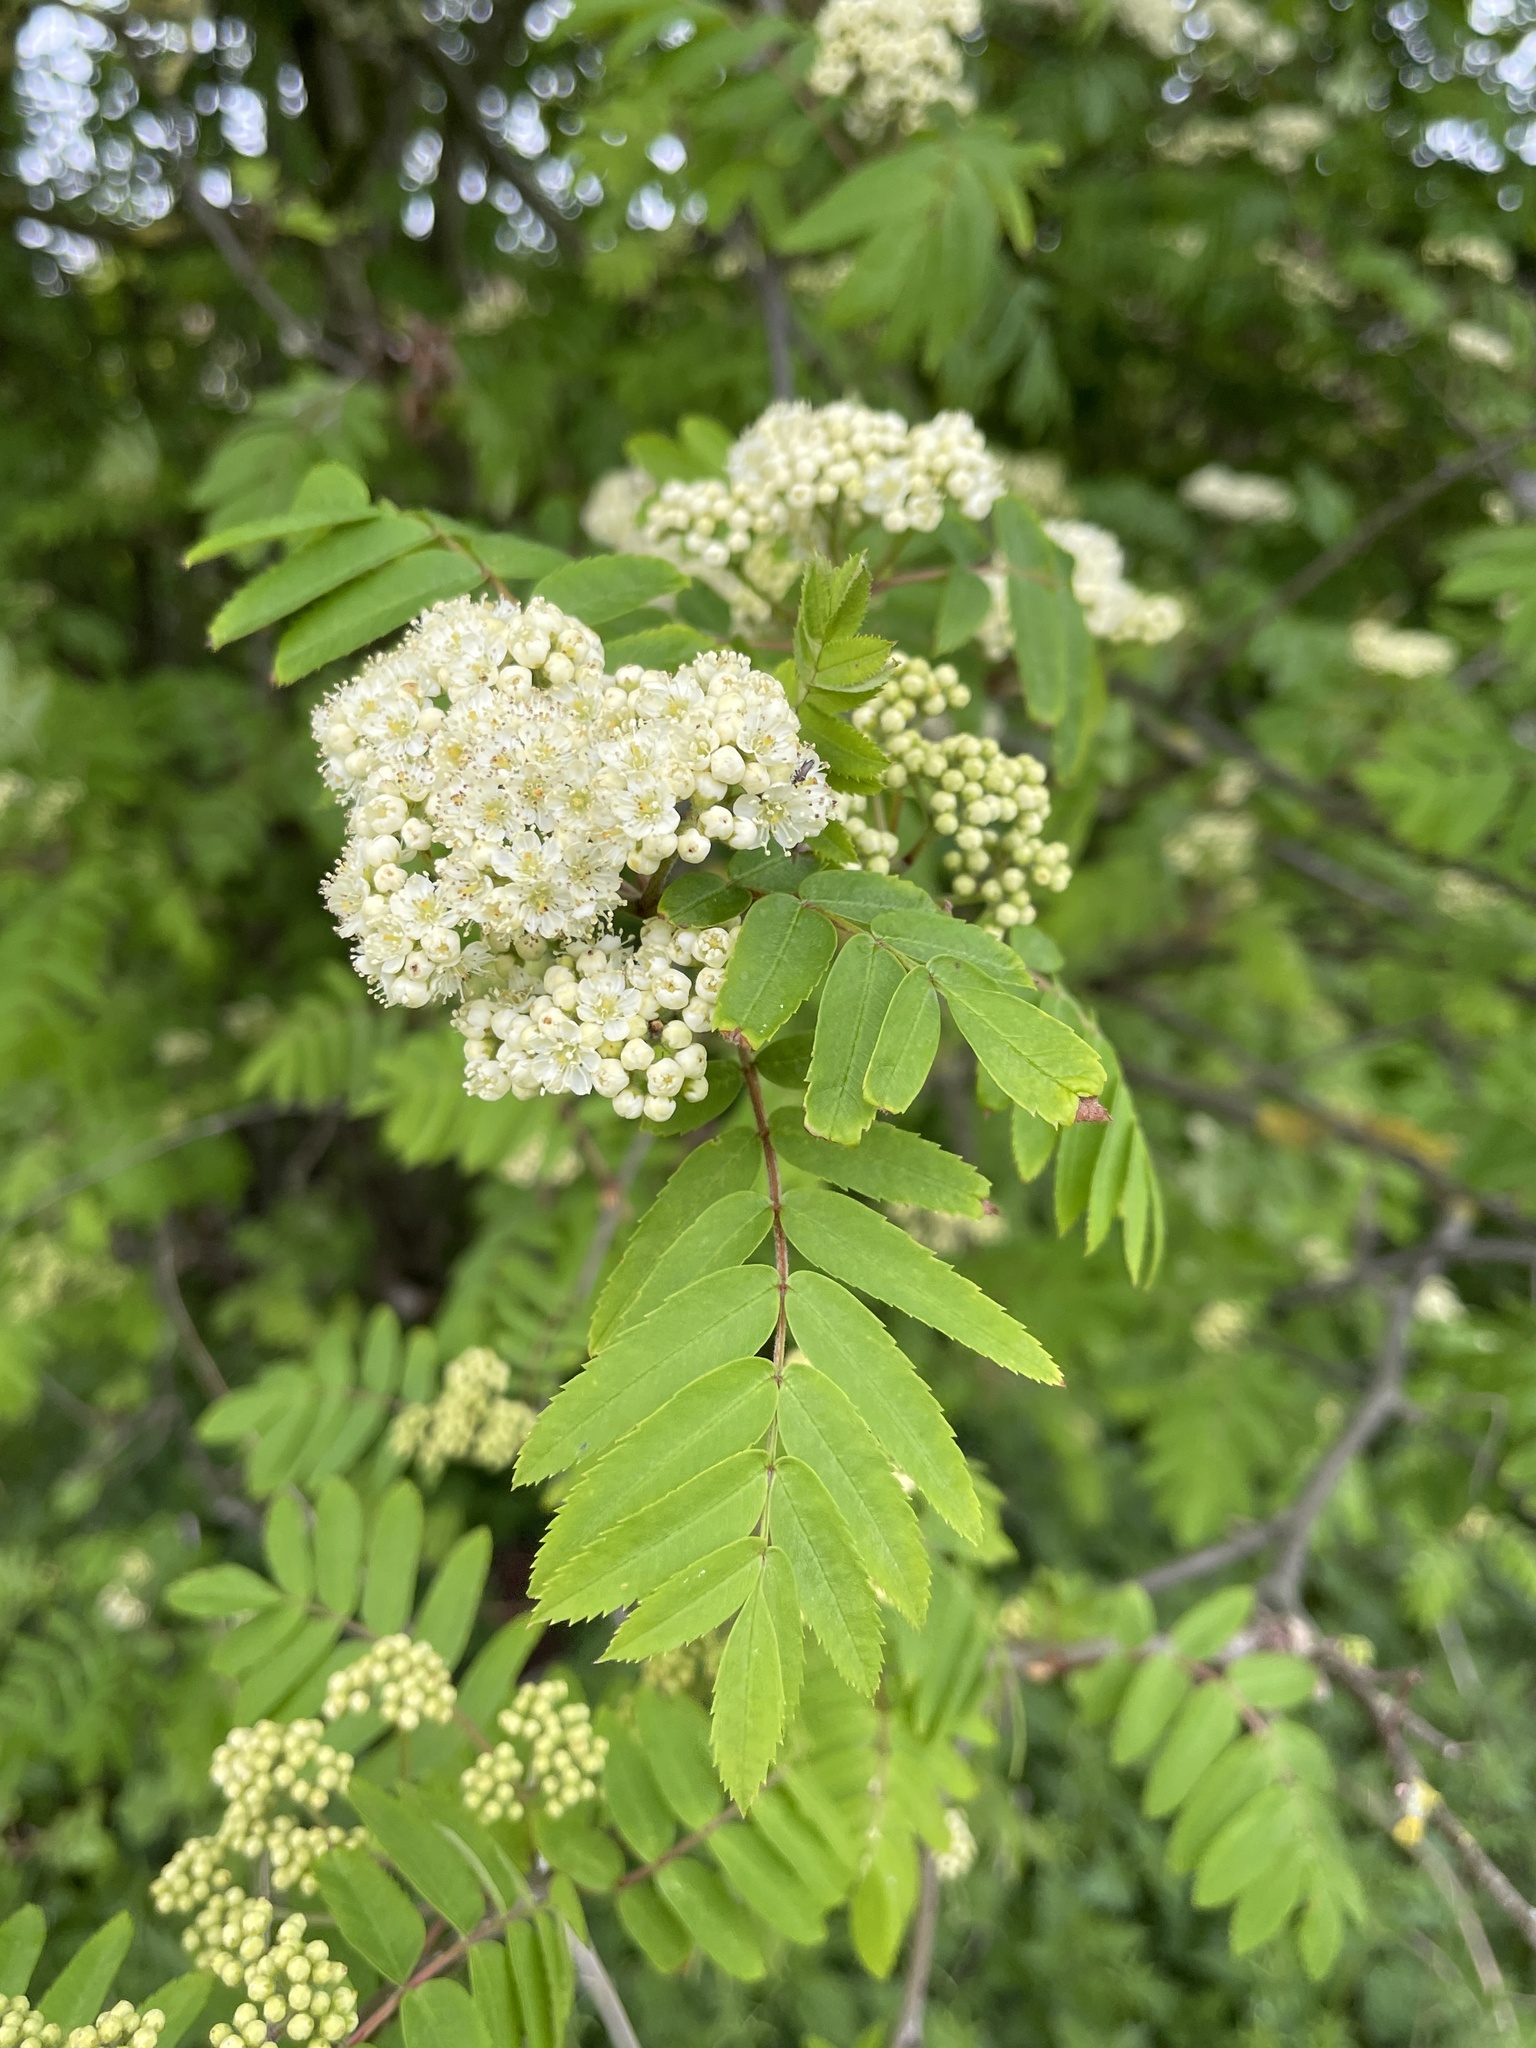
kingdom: Plantae
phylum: Tracheophyta
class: Magnoliopsida
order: Rosales
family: Rosaceae
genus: Sorbus
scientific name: Sorbus aucuparia
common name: Rowan
